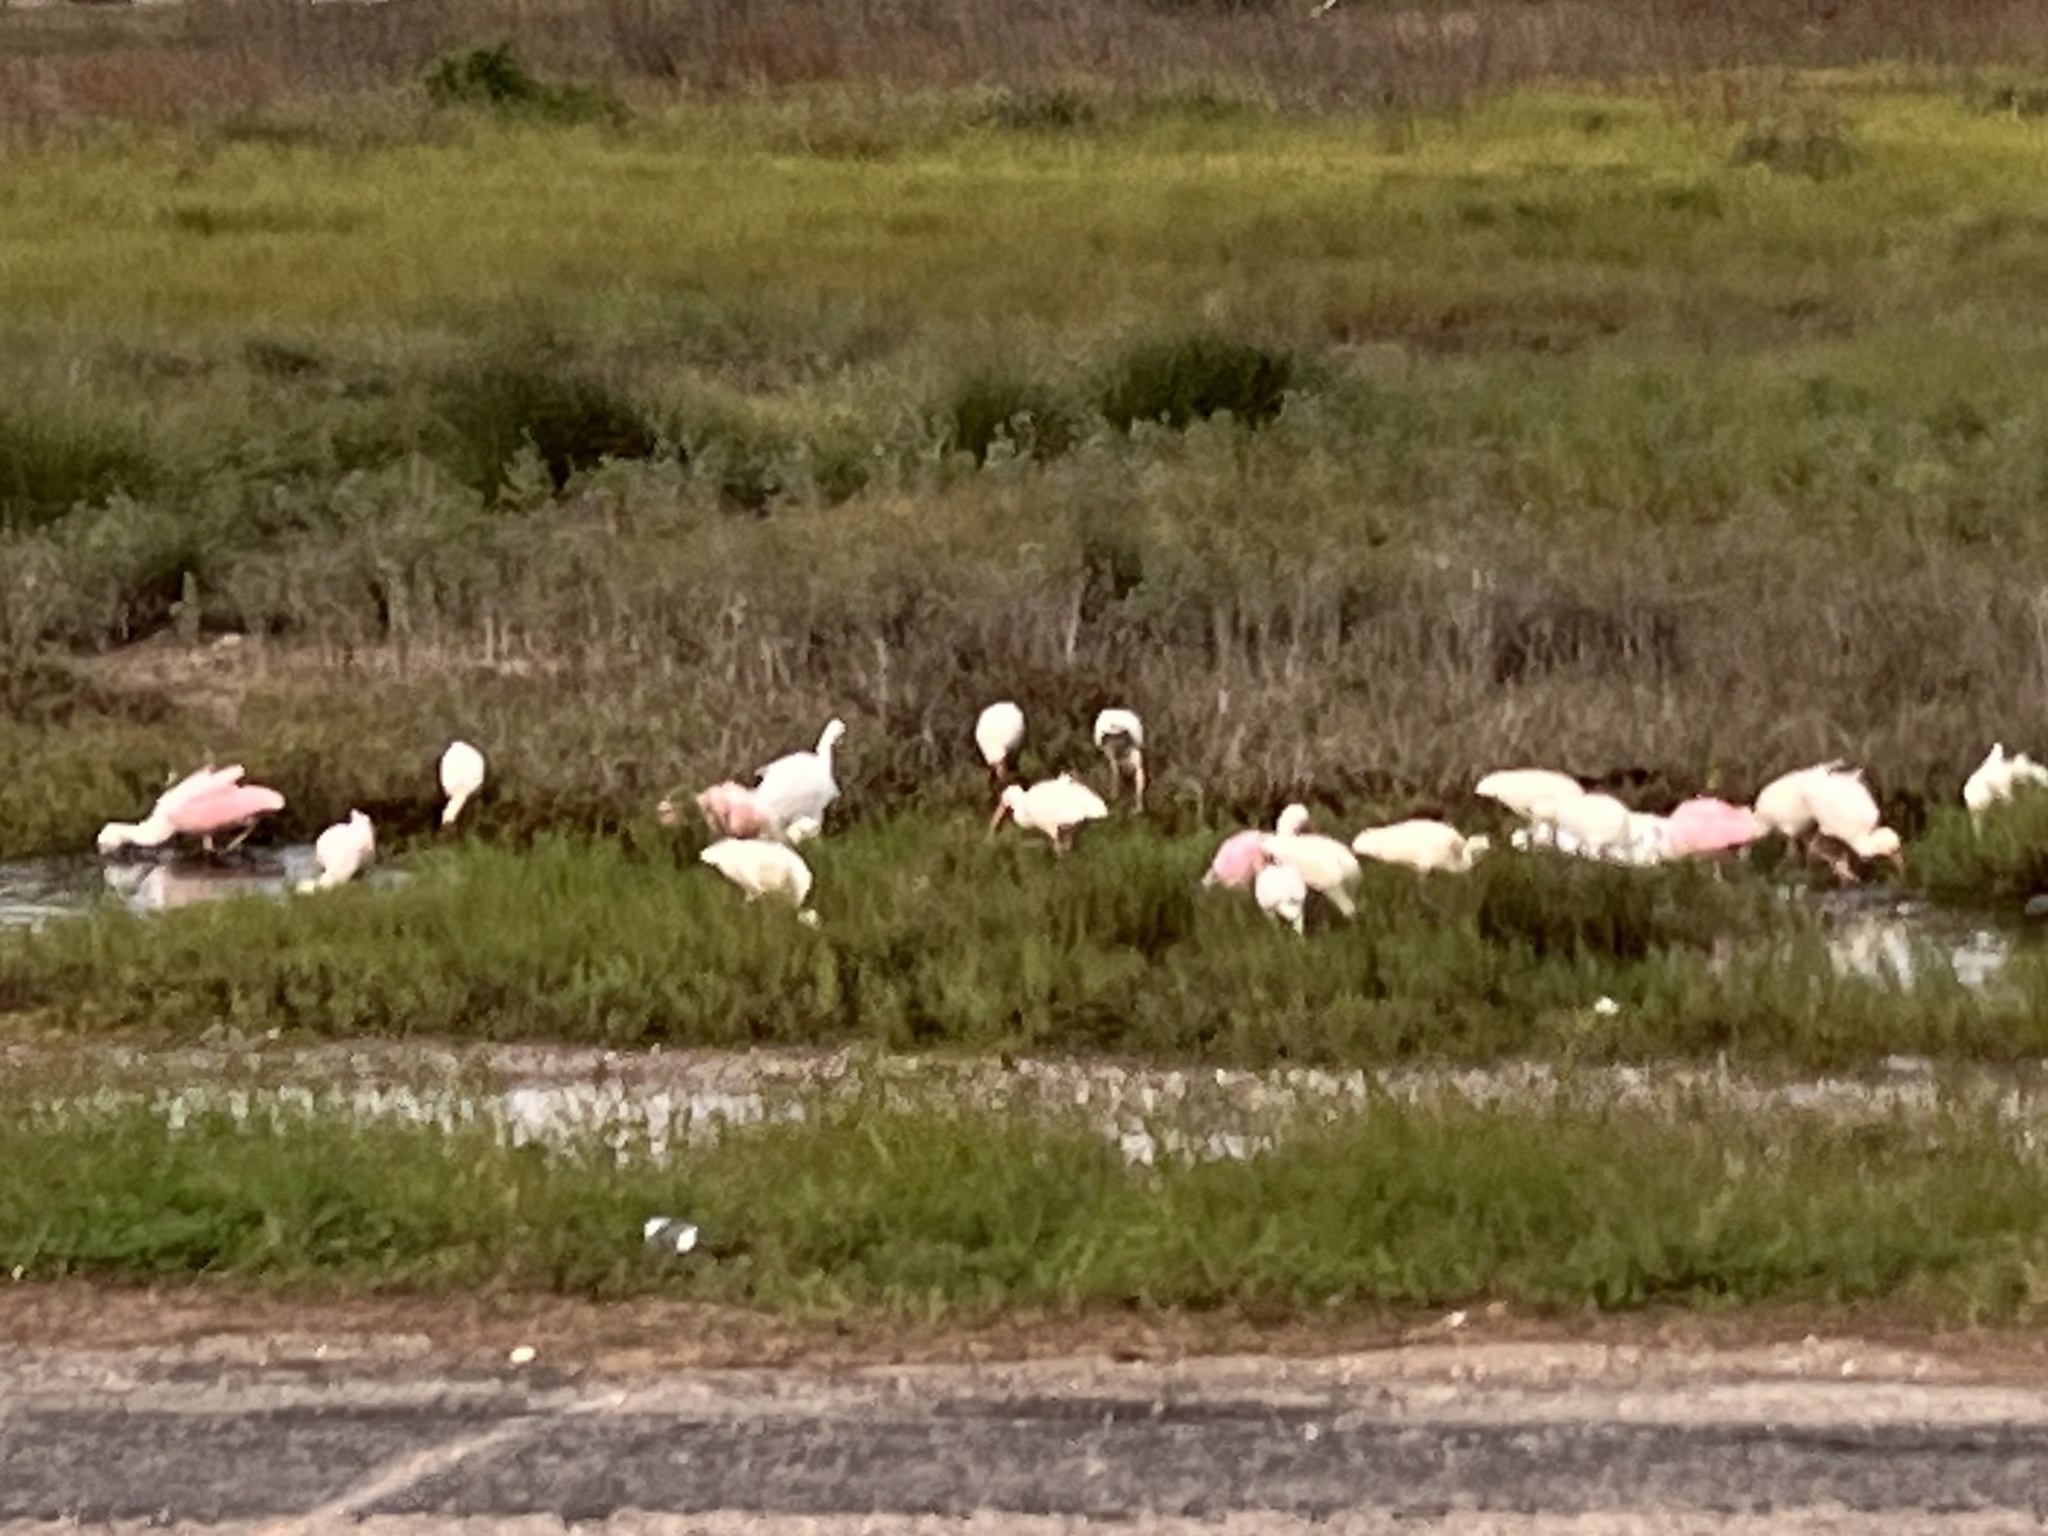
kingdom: Animalia
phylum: Chordata
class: Aves
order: Pelecaniformes
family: Threskiornithidae
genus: Platalea
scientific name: Platalea ajaja
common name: Roseate spoonbill
